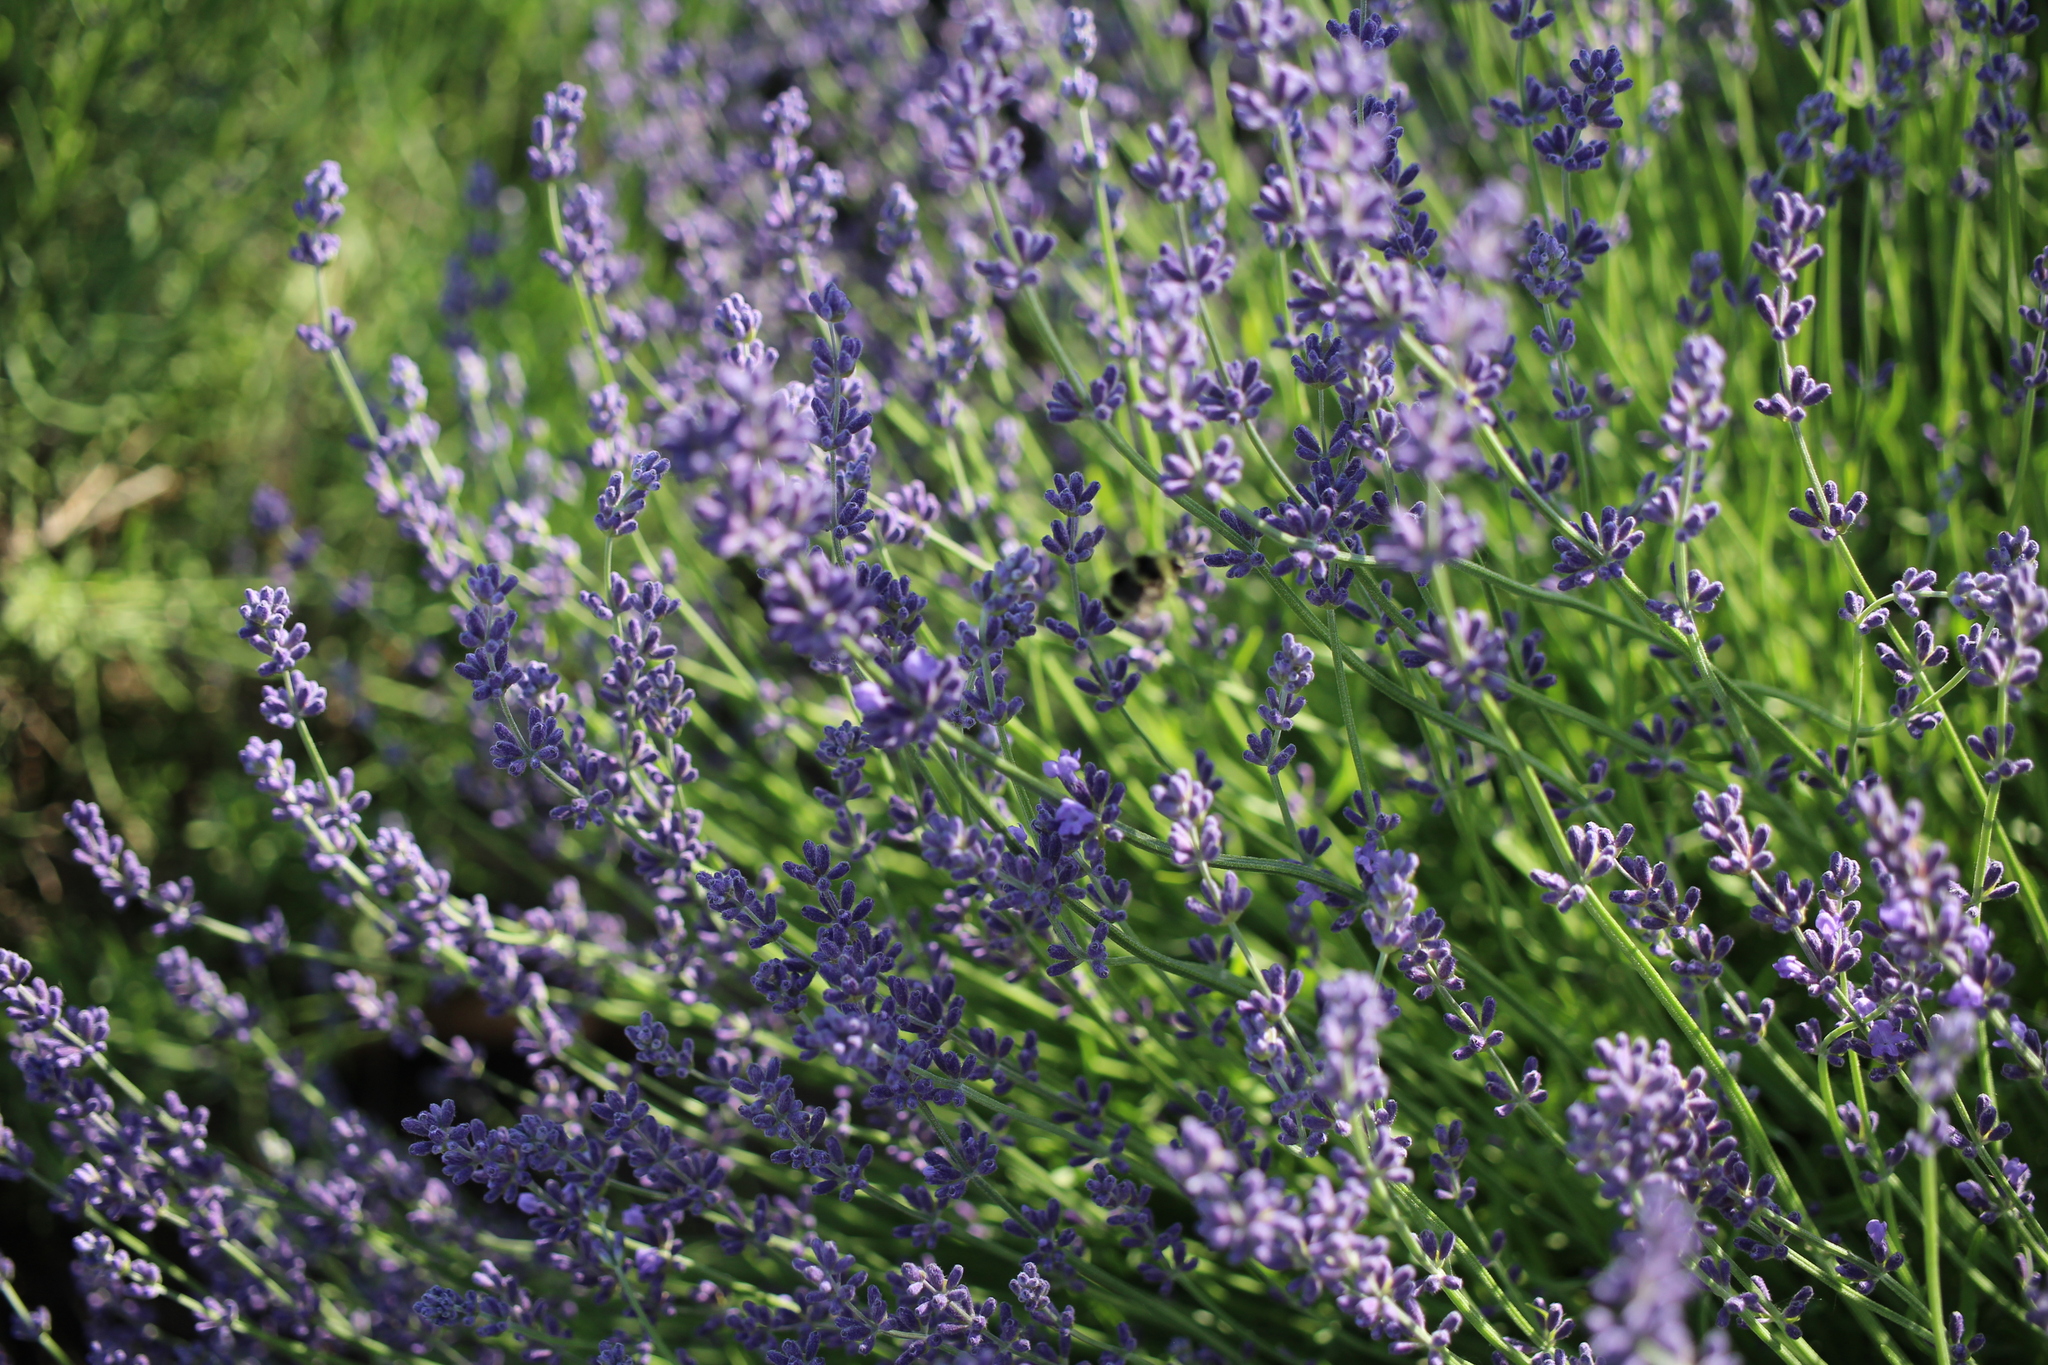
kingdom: Animalia
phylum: Arthropoda
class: Insecta
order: Hymenoptera
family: Apidae
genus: Bombus
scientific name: Bombus vosnesenskii
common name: Vosnesensky bumble bee
